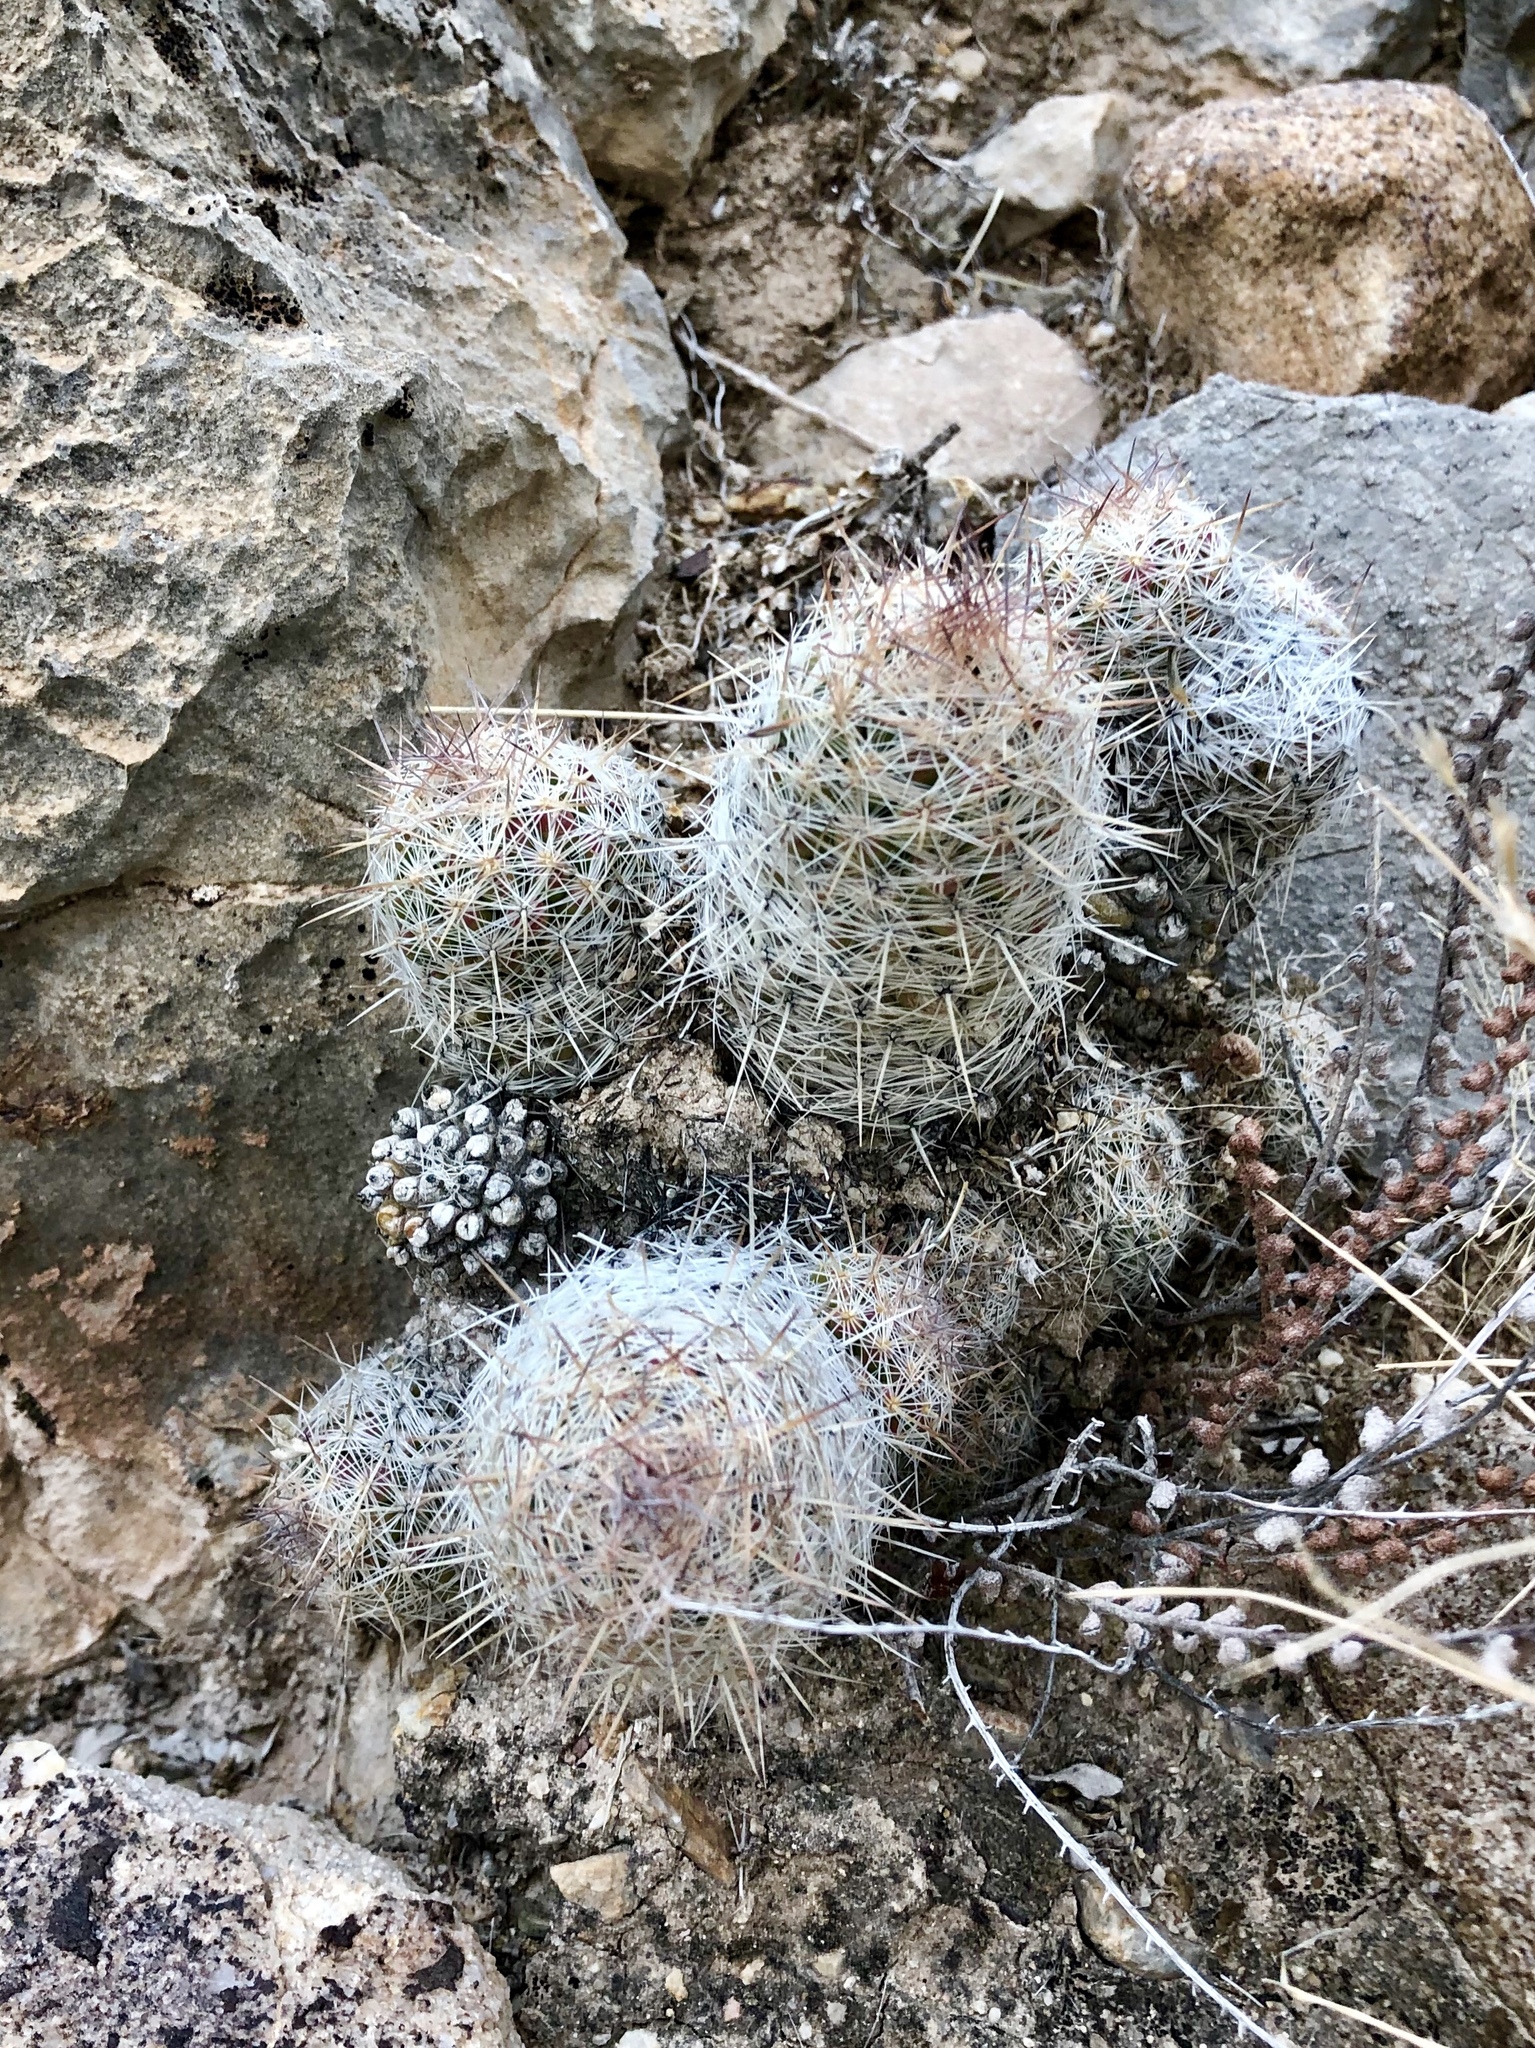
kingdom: Plantae
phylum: Tracheophyta
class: Magnoliopsida
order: Caryophyllales
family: Cactaceae
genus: Pelecyphora
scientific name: Pelecyphora tuberculosa
